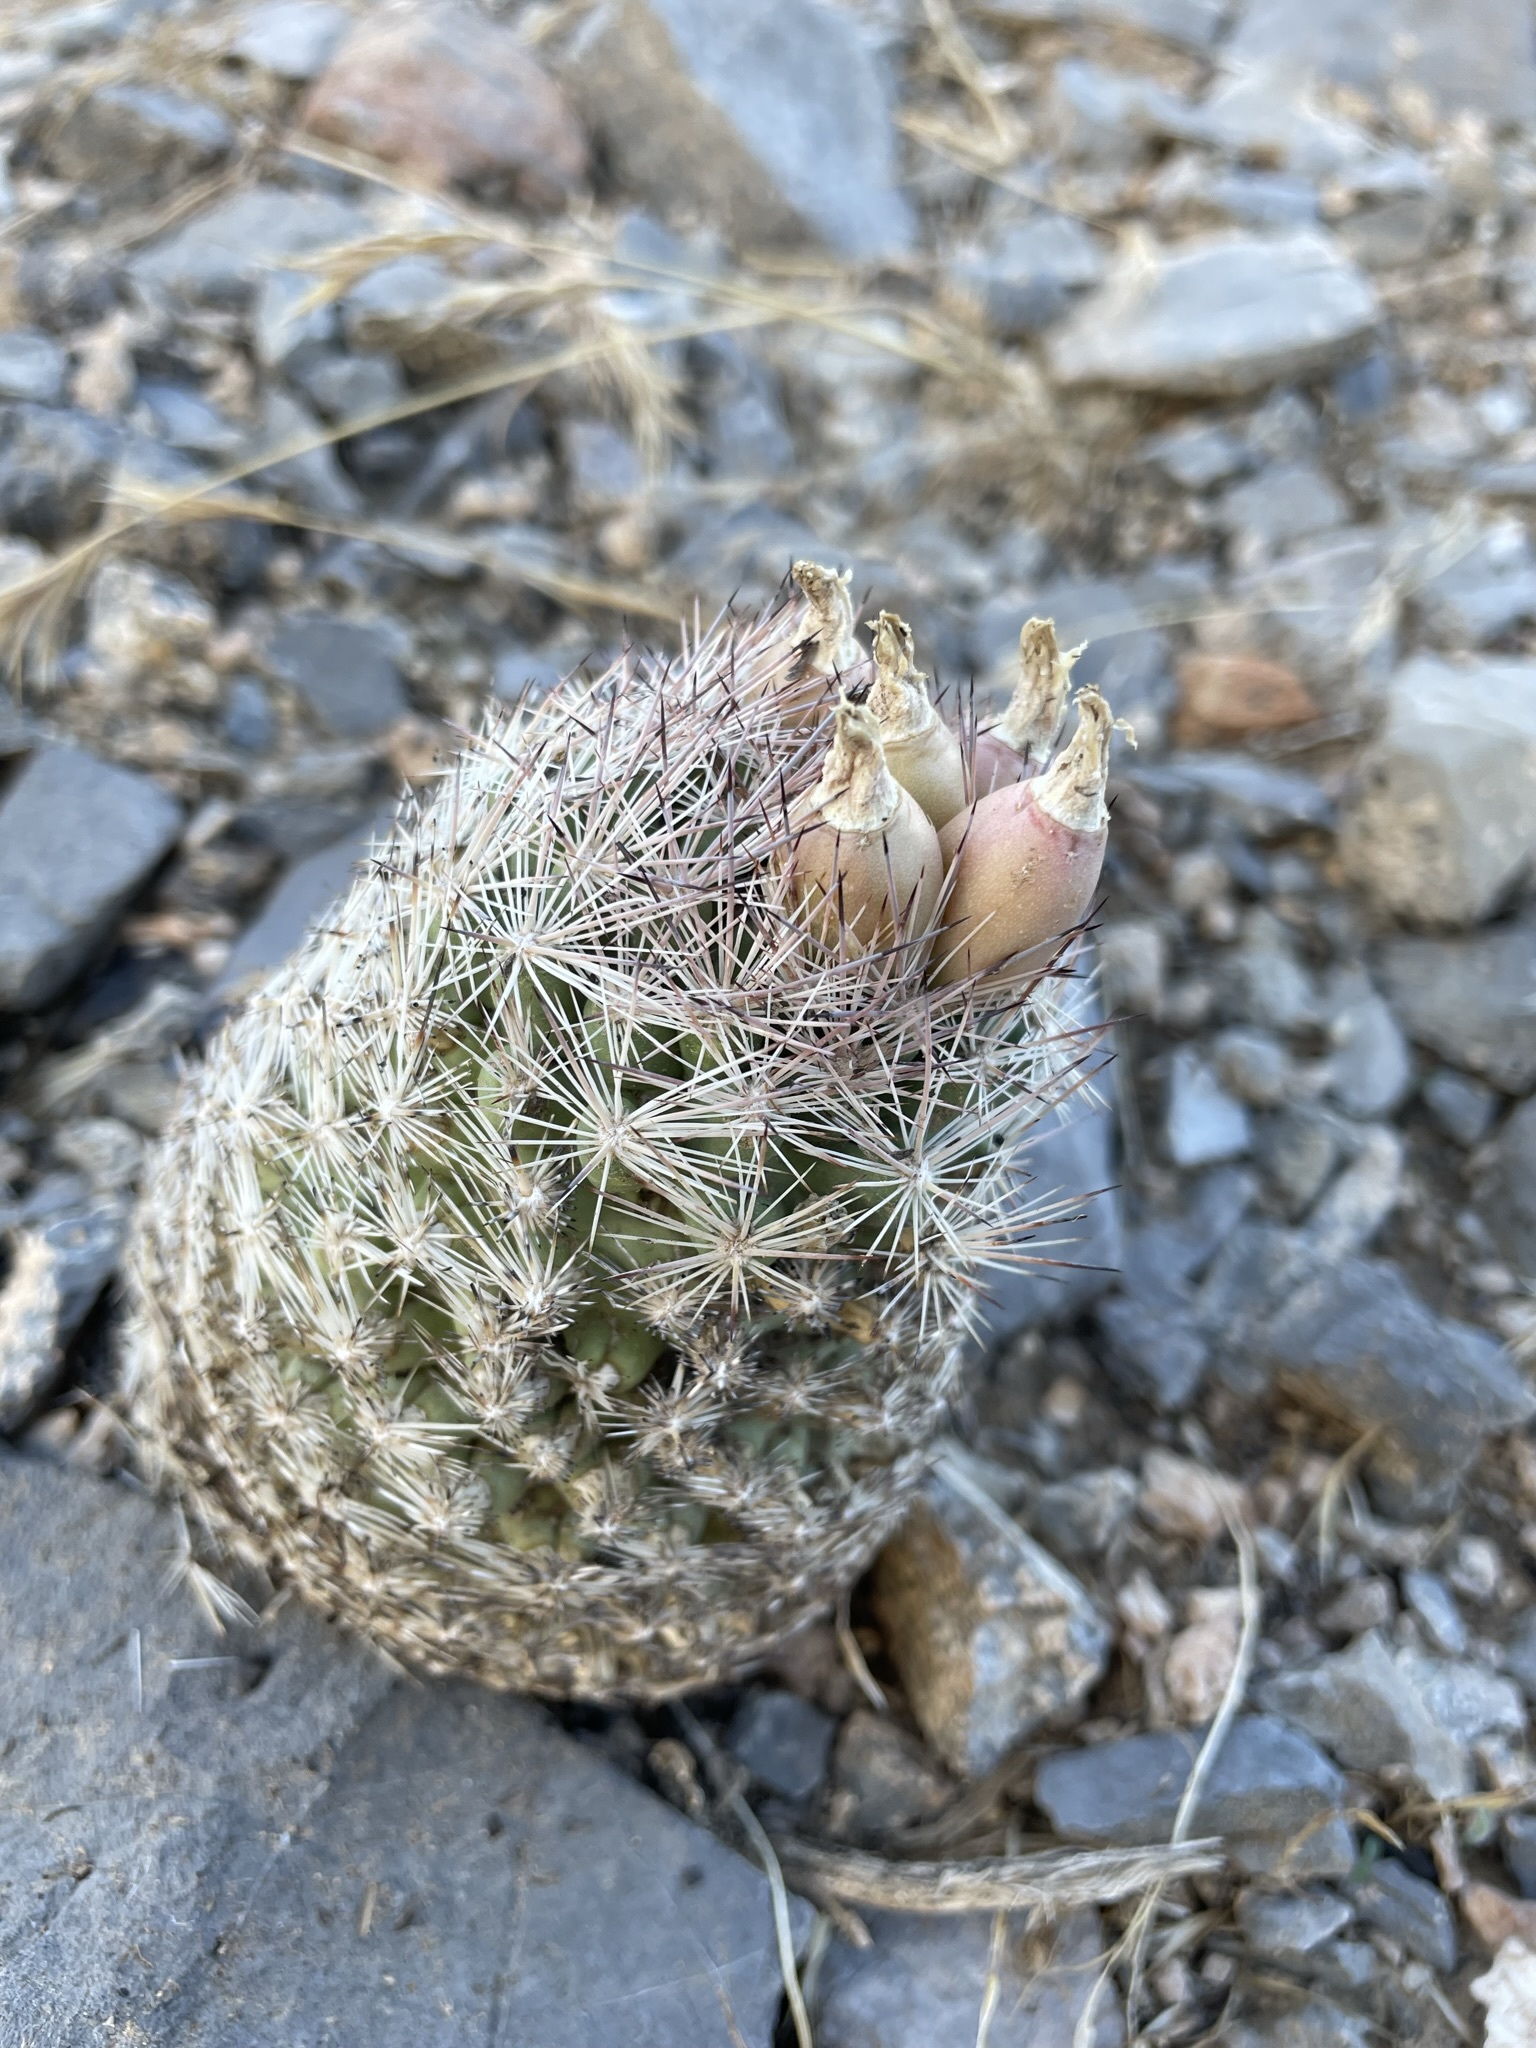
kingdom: Plantae
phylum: Tracheophyta
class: Magnoliopsida
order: Caryophyllales
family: Cactaceae
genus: Pelecyphora
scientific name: Pelecyphora dasyacantha
